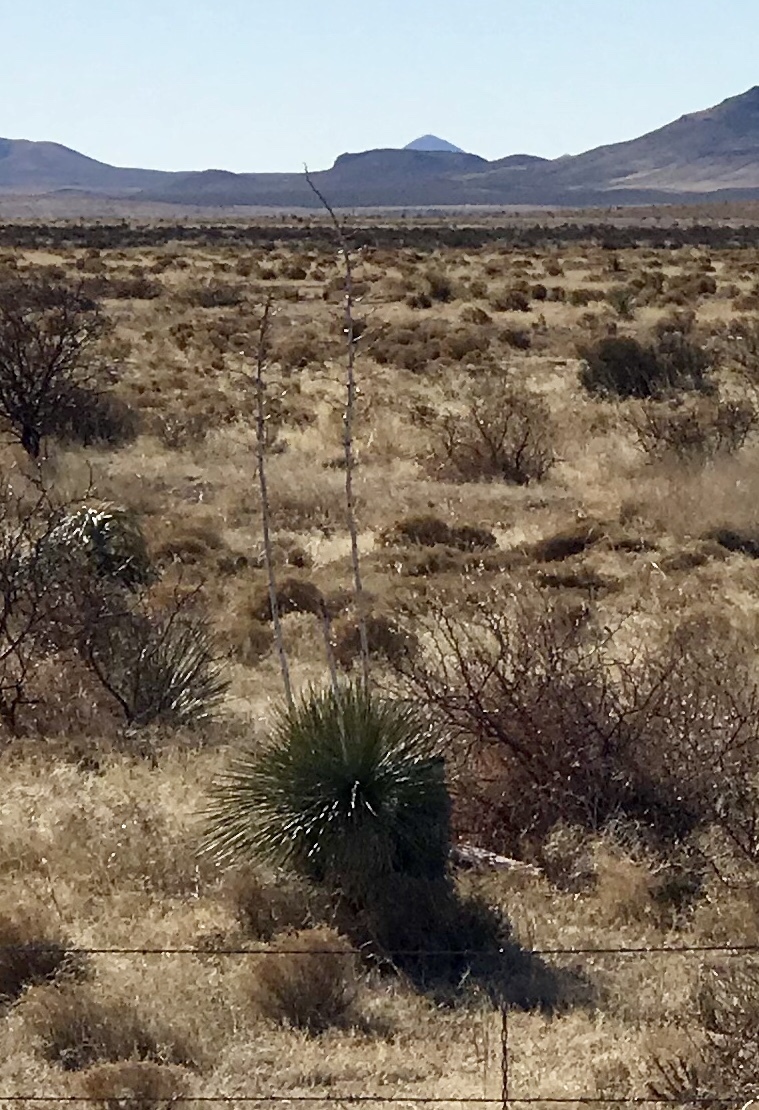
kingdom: Plantae
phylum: Tracheophyta
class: Liliopsida
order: Asparagales
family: Asparagaceae
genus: Yucca
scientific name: Yucca elata
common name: Palmella
